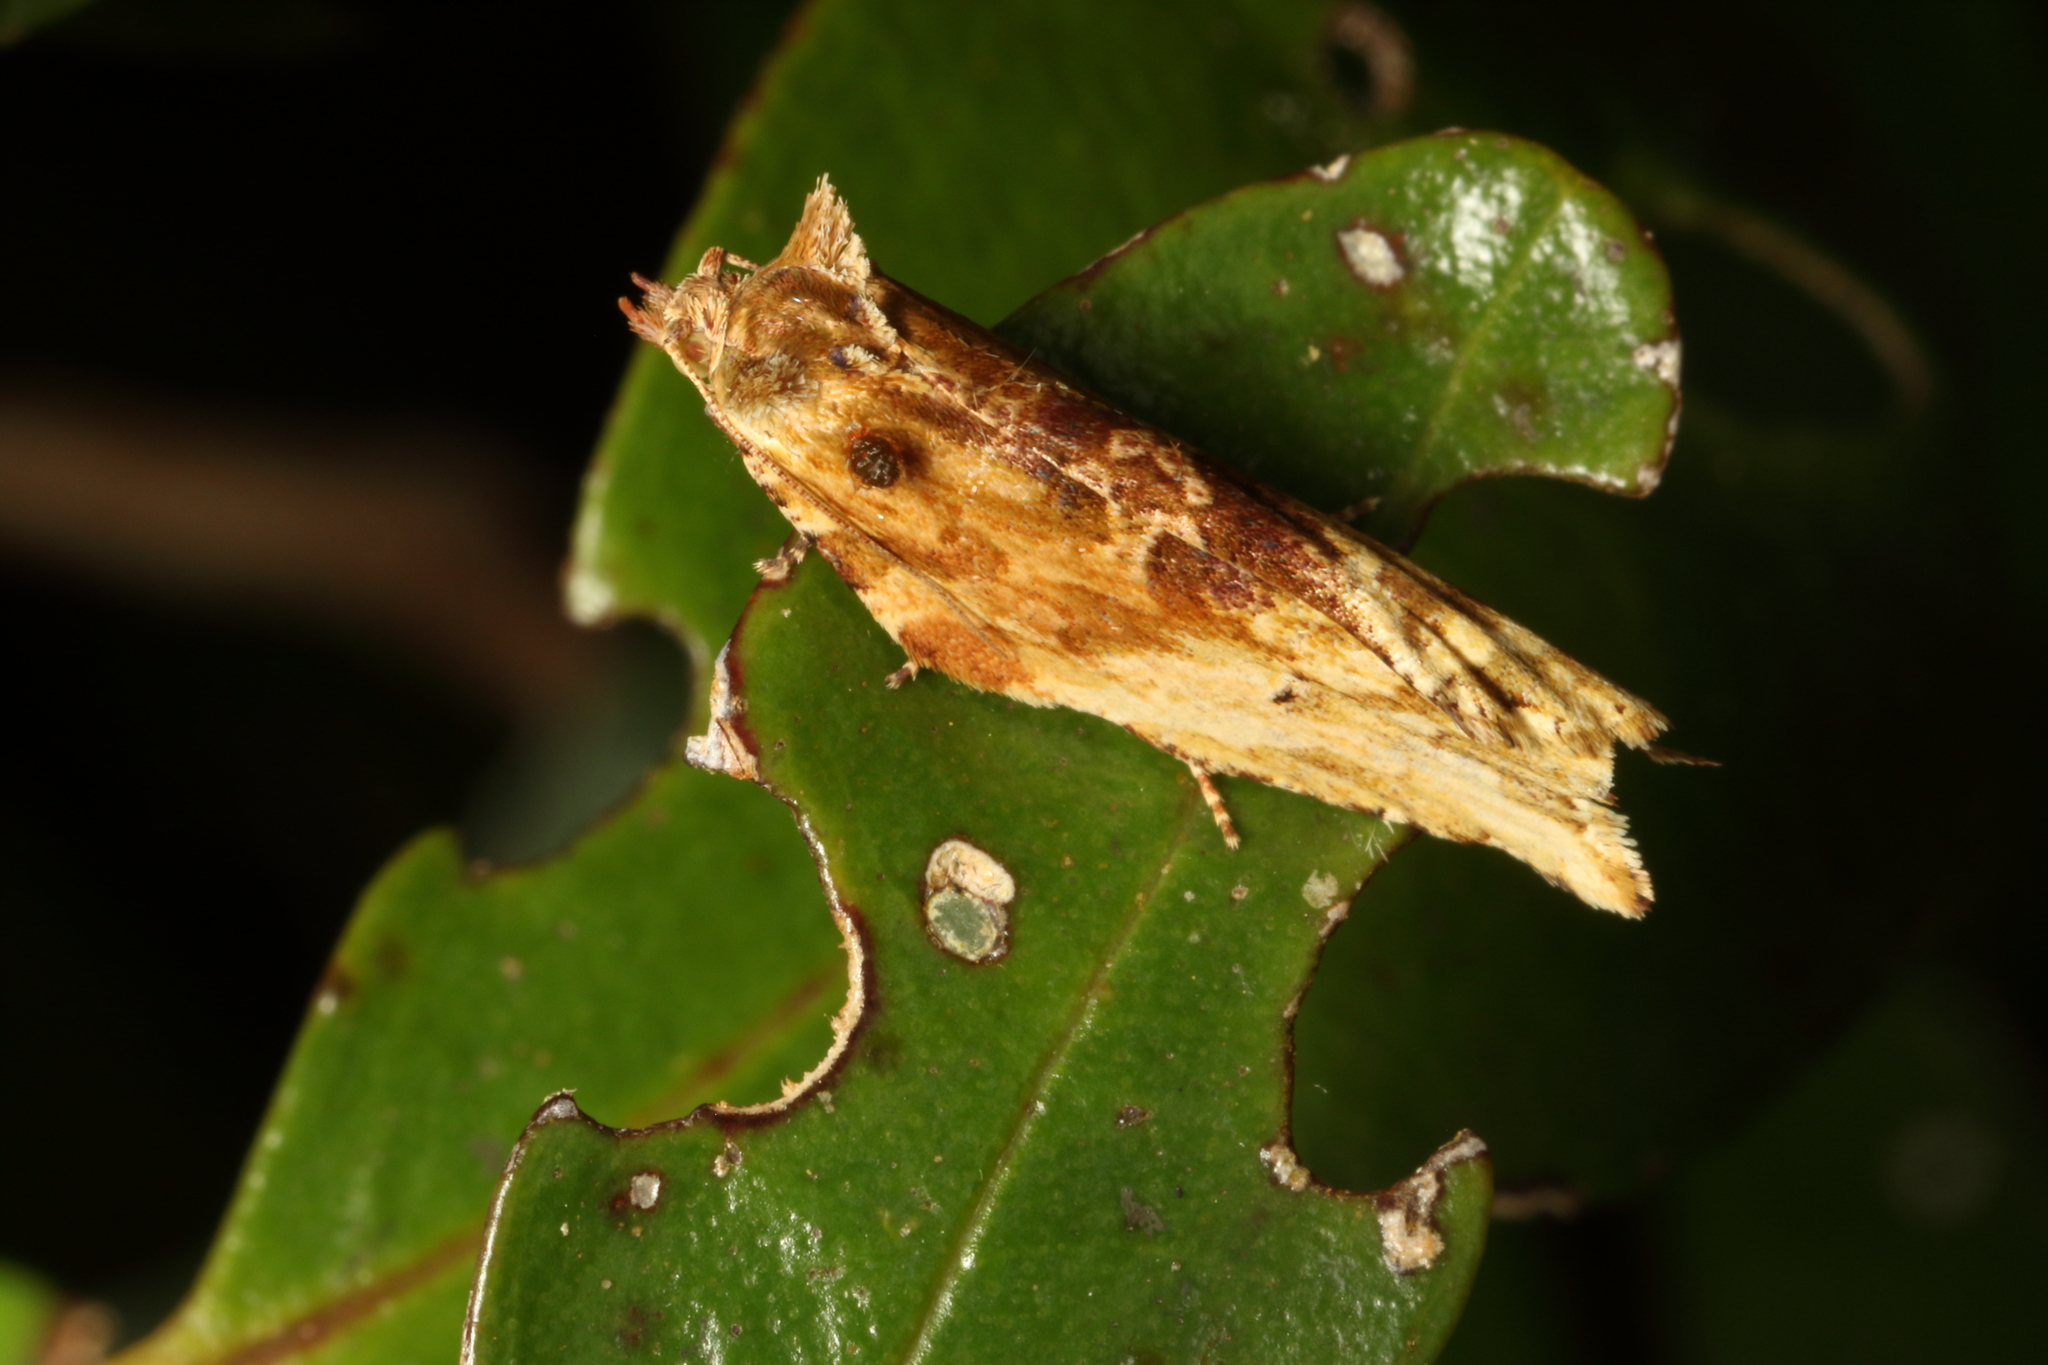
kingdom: Animalia
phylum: Arthropoda
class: Insecta
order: Lepidoptera
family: Tortricidae
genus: Epalxiphora
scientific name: Epalxiphora axenana
